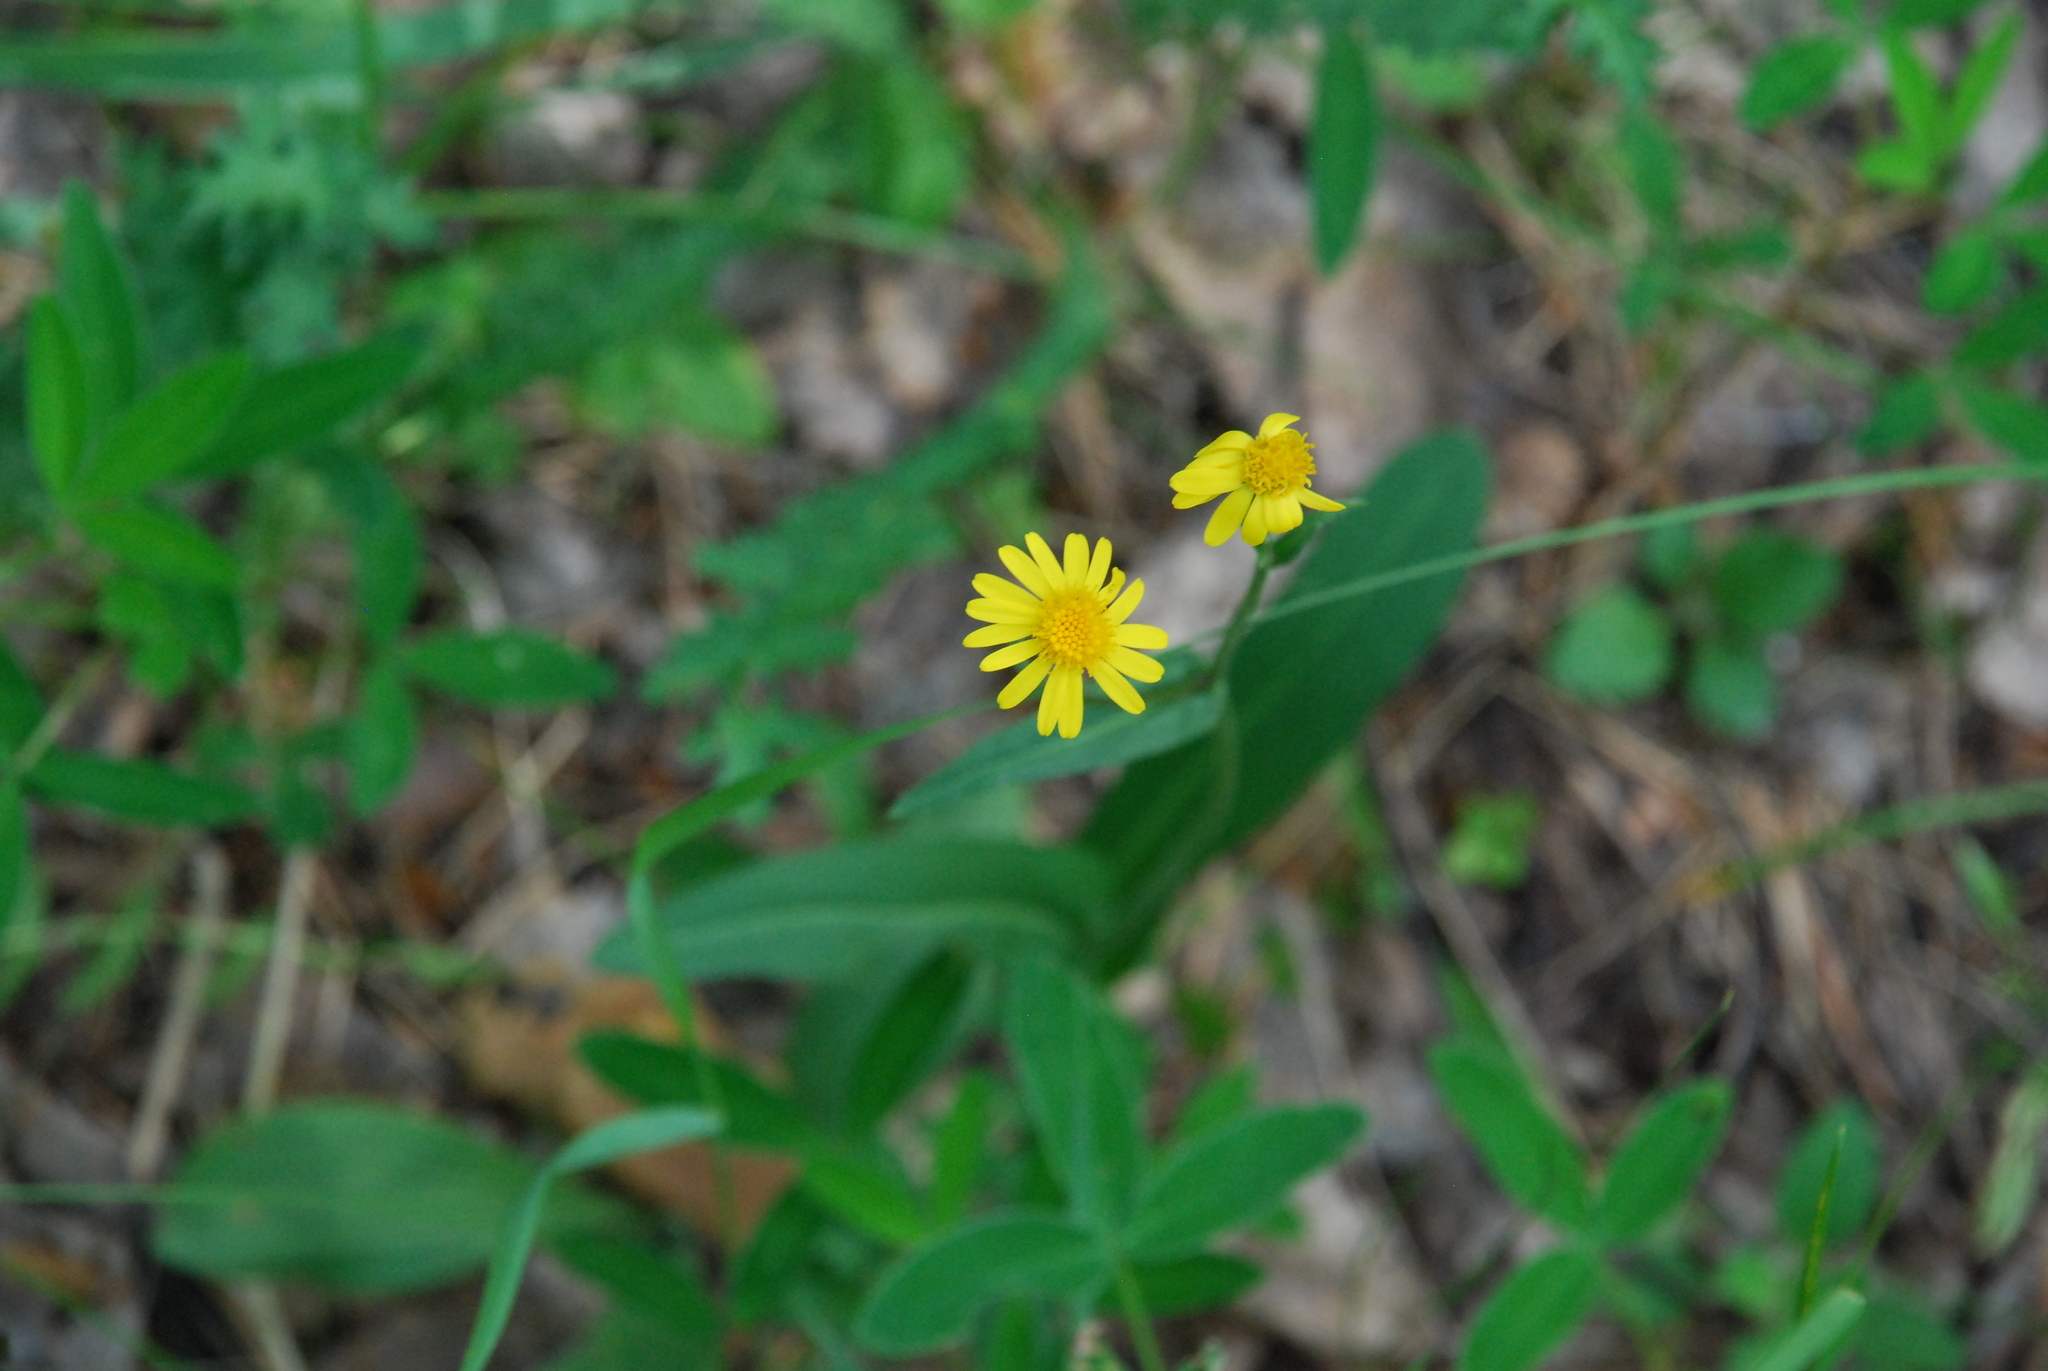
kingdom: Plantae
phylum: Tracheophyta
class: Magnoliopsida
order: Asterales
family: Asteraceae
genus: Tephroseris
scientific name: Tephroseris integrifolia
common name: Field fleawort
